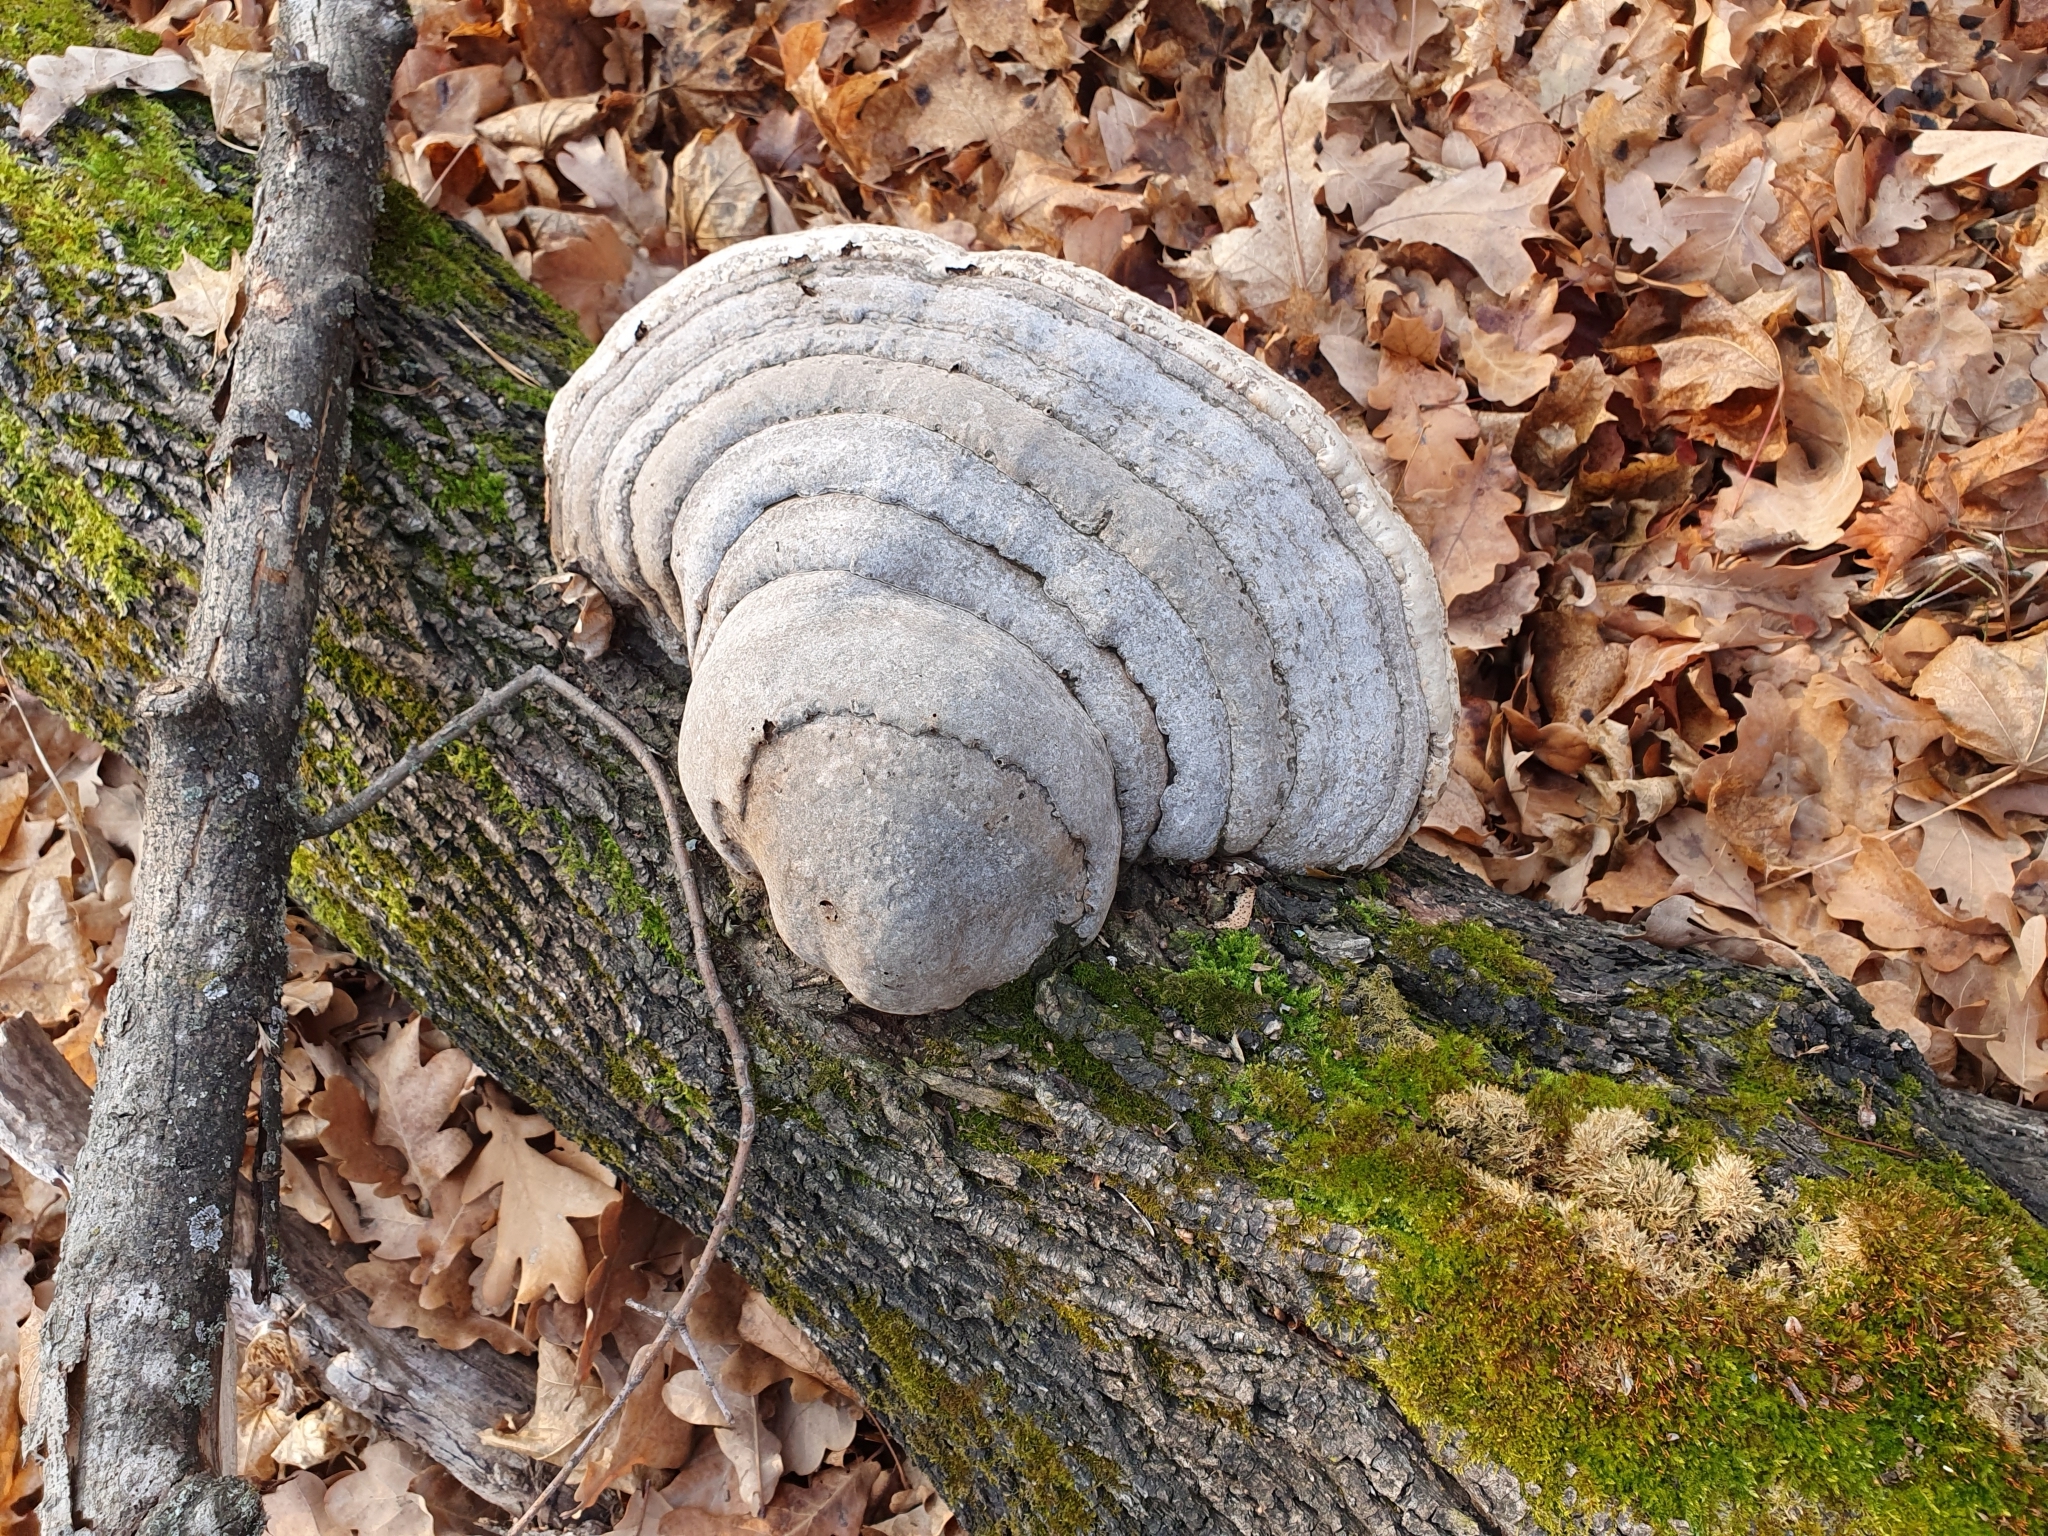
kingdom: Fungi
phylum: Basidiomycota
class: Agaricomycetes
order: Polyporales
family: Polyporaceae
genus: Fomes
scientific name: Fomes fomentarius
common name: Hoof fungus
